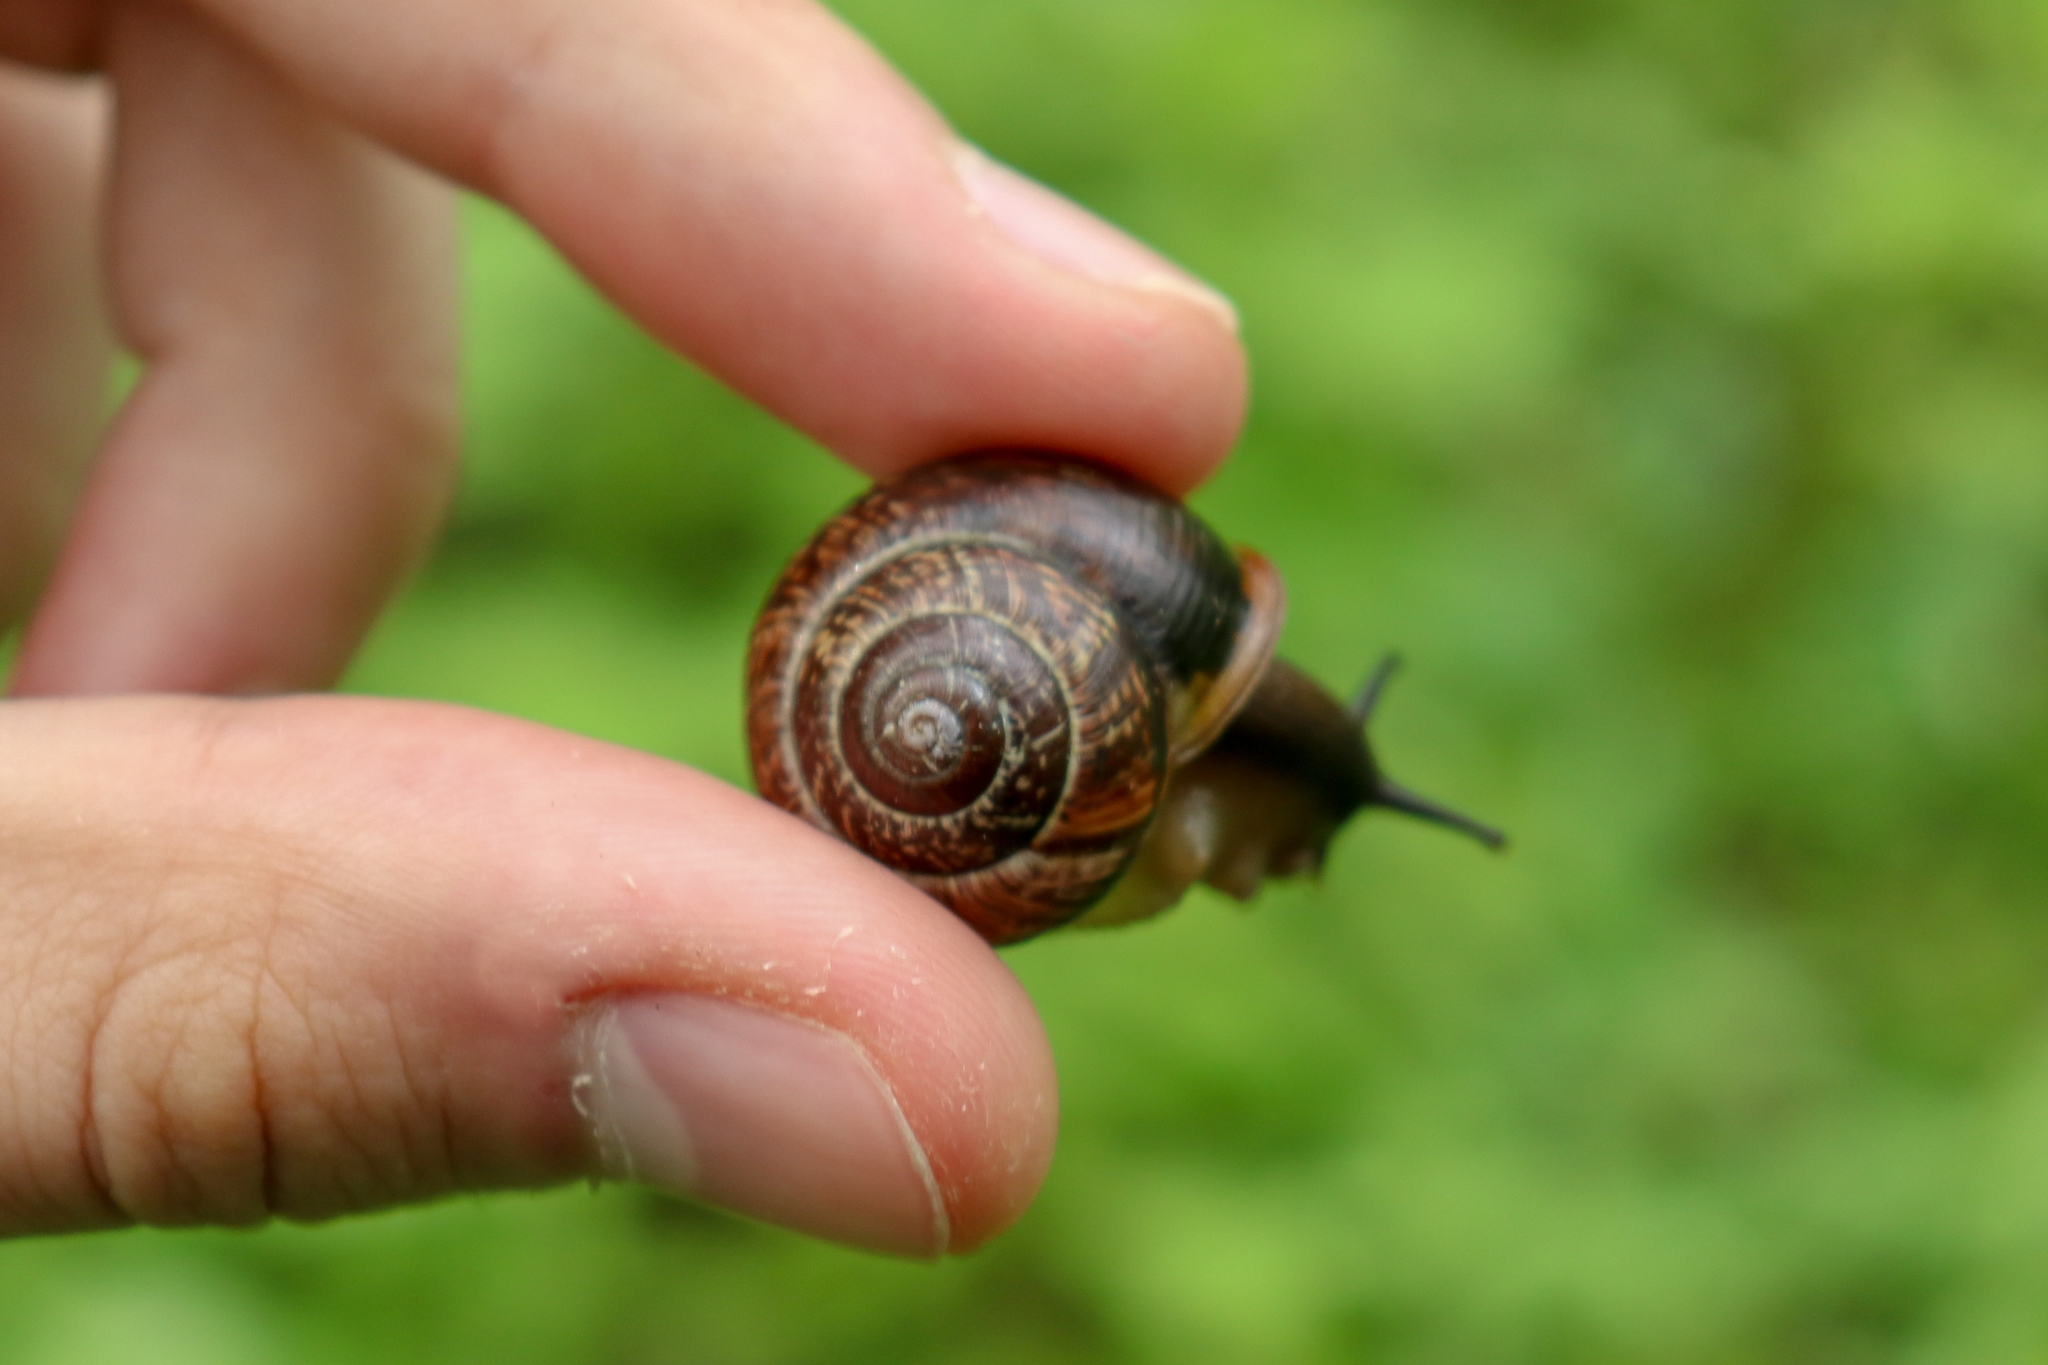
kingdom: Animalia
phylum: Mollusca
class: Gastropoda
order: Stylommatophora
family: Helicidae
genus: Arianta
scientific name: Arianta arbustorum
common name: Copse snail
